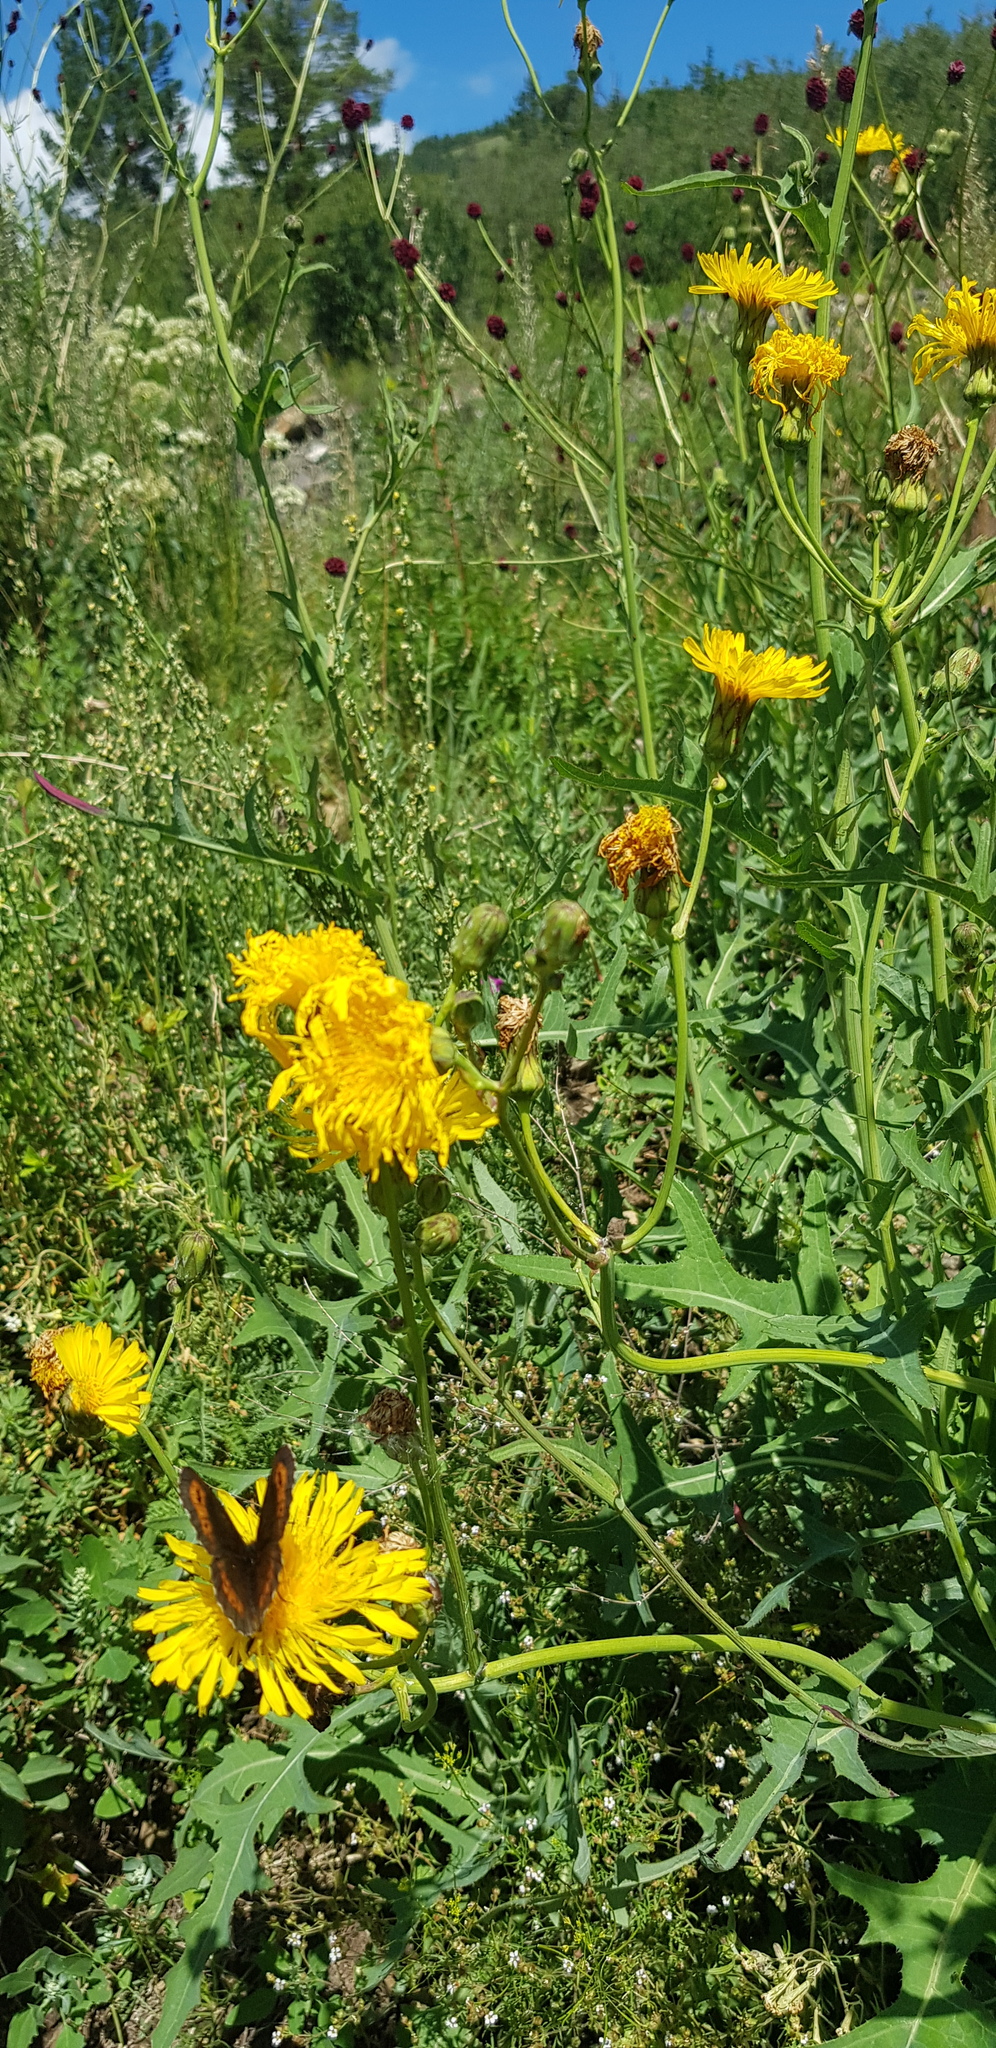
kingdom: Plantae
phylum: Tracheophyta
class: Magnoliopsida
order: Asterales
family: Asteraceae
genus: Sonchus
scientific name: Sonchus oleraceus
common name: Common sowthistle
